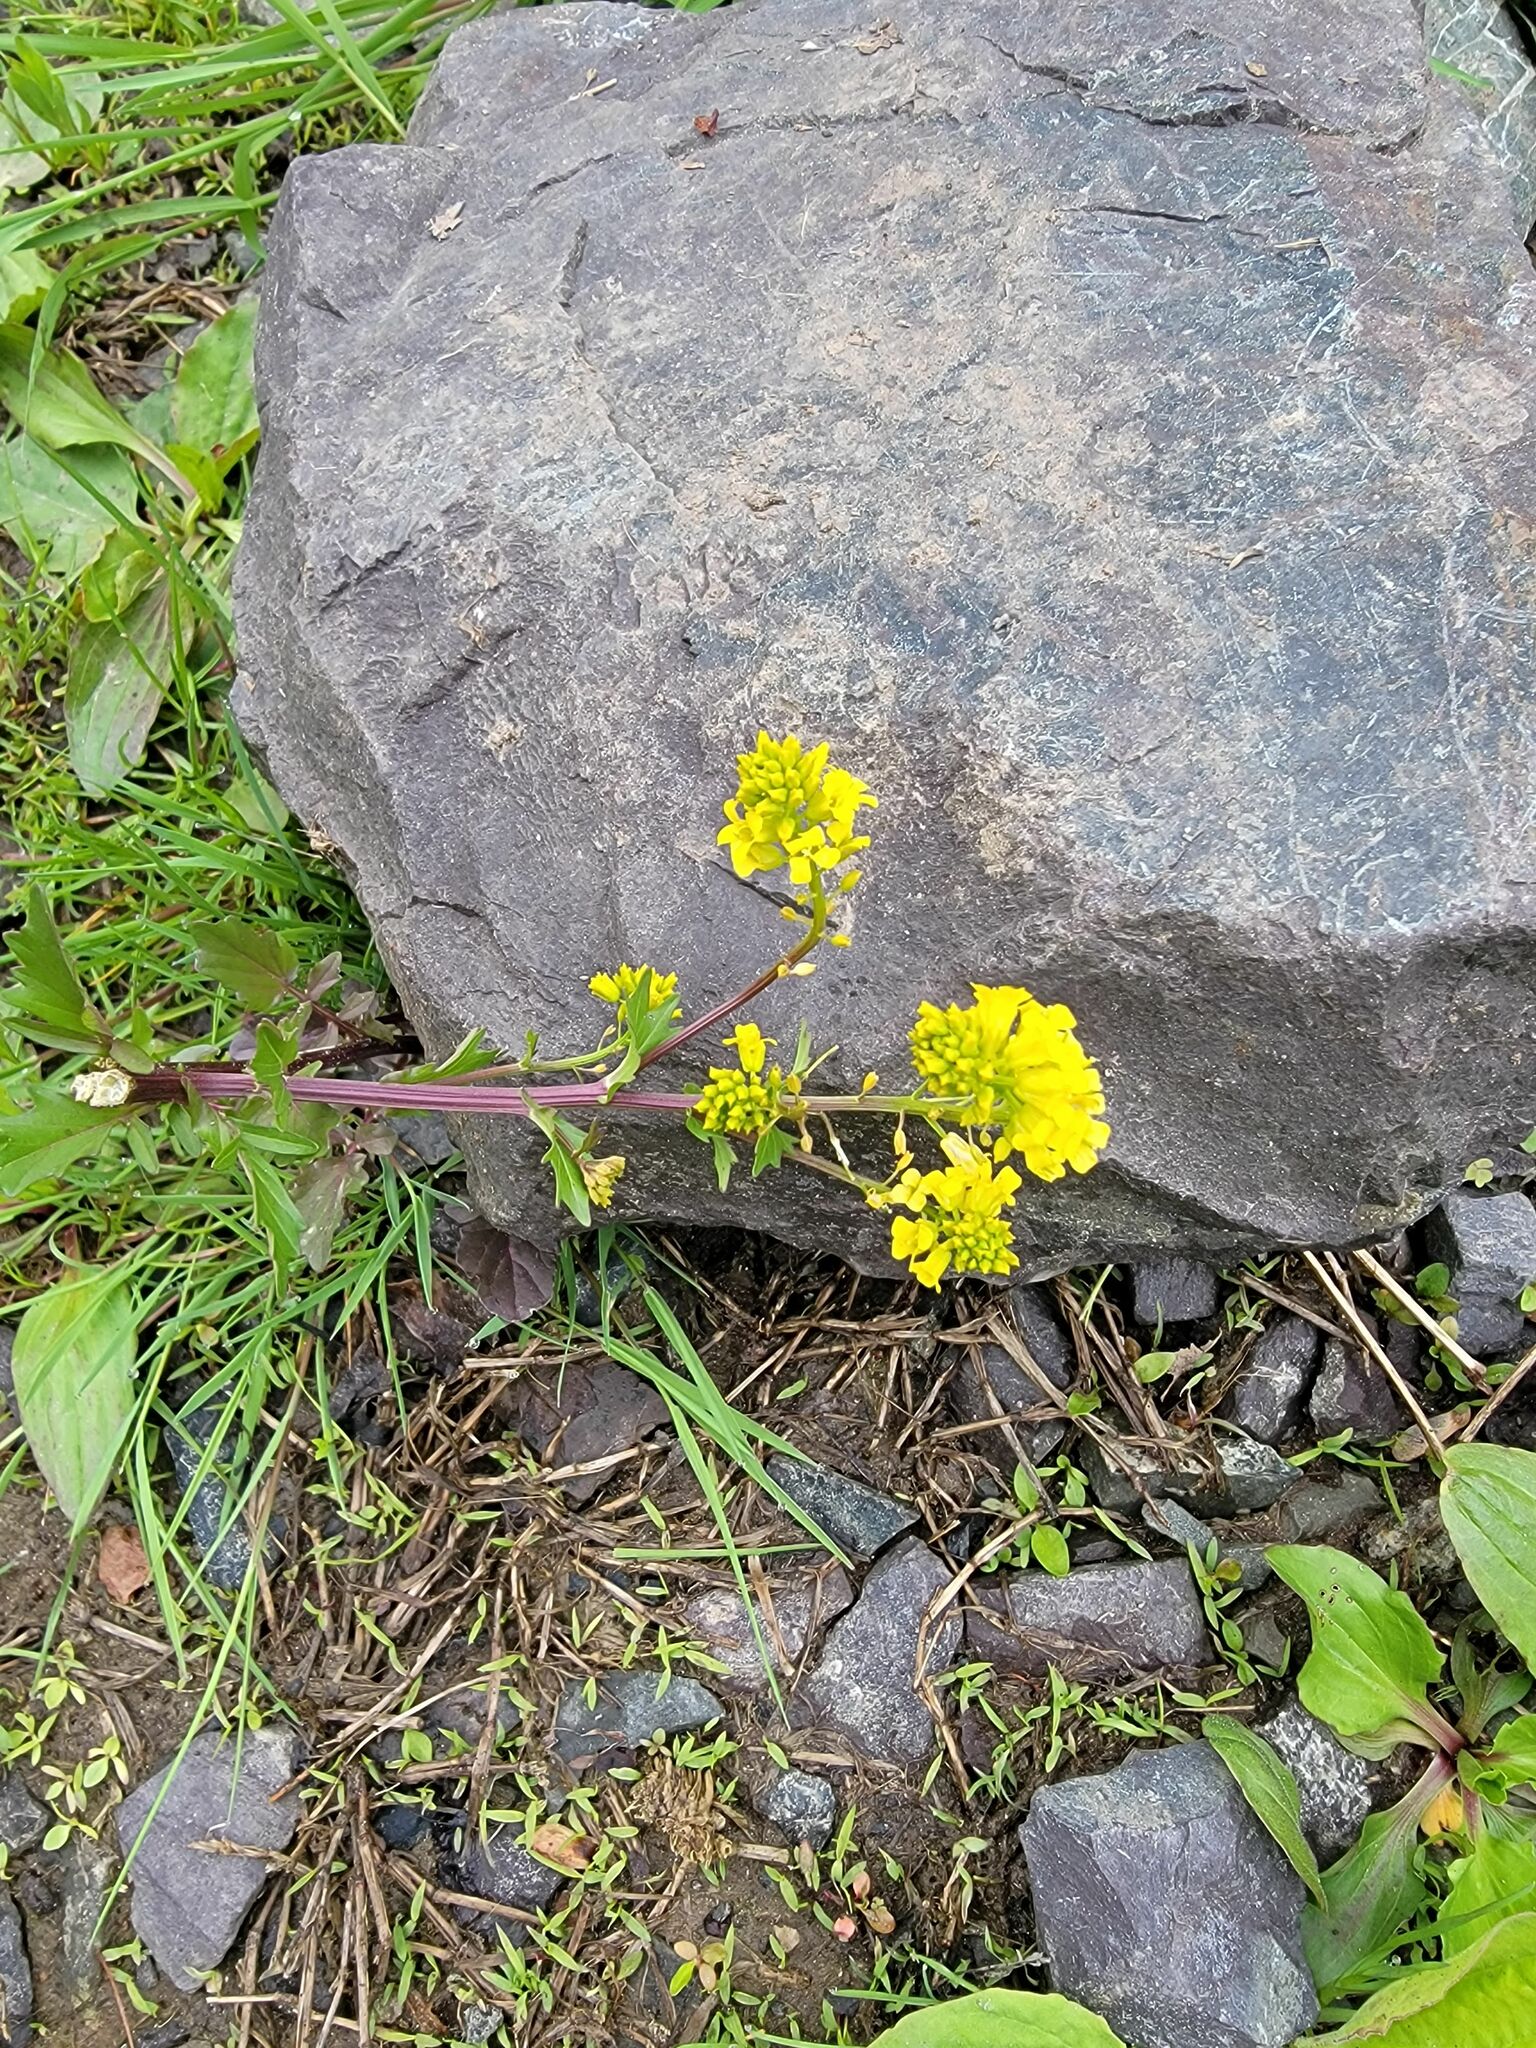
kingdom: Plantae
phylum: Tracheophyta
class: Magnoliopsida
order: Brassicales
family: Brassicaceae
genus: Barbarea
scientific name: Barbarea vulgaris
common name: Cressy-greens
